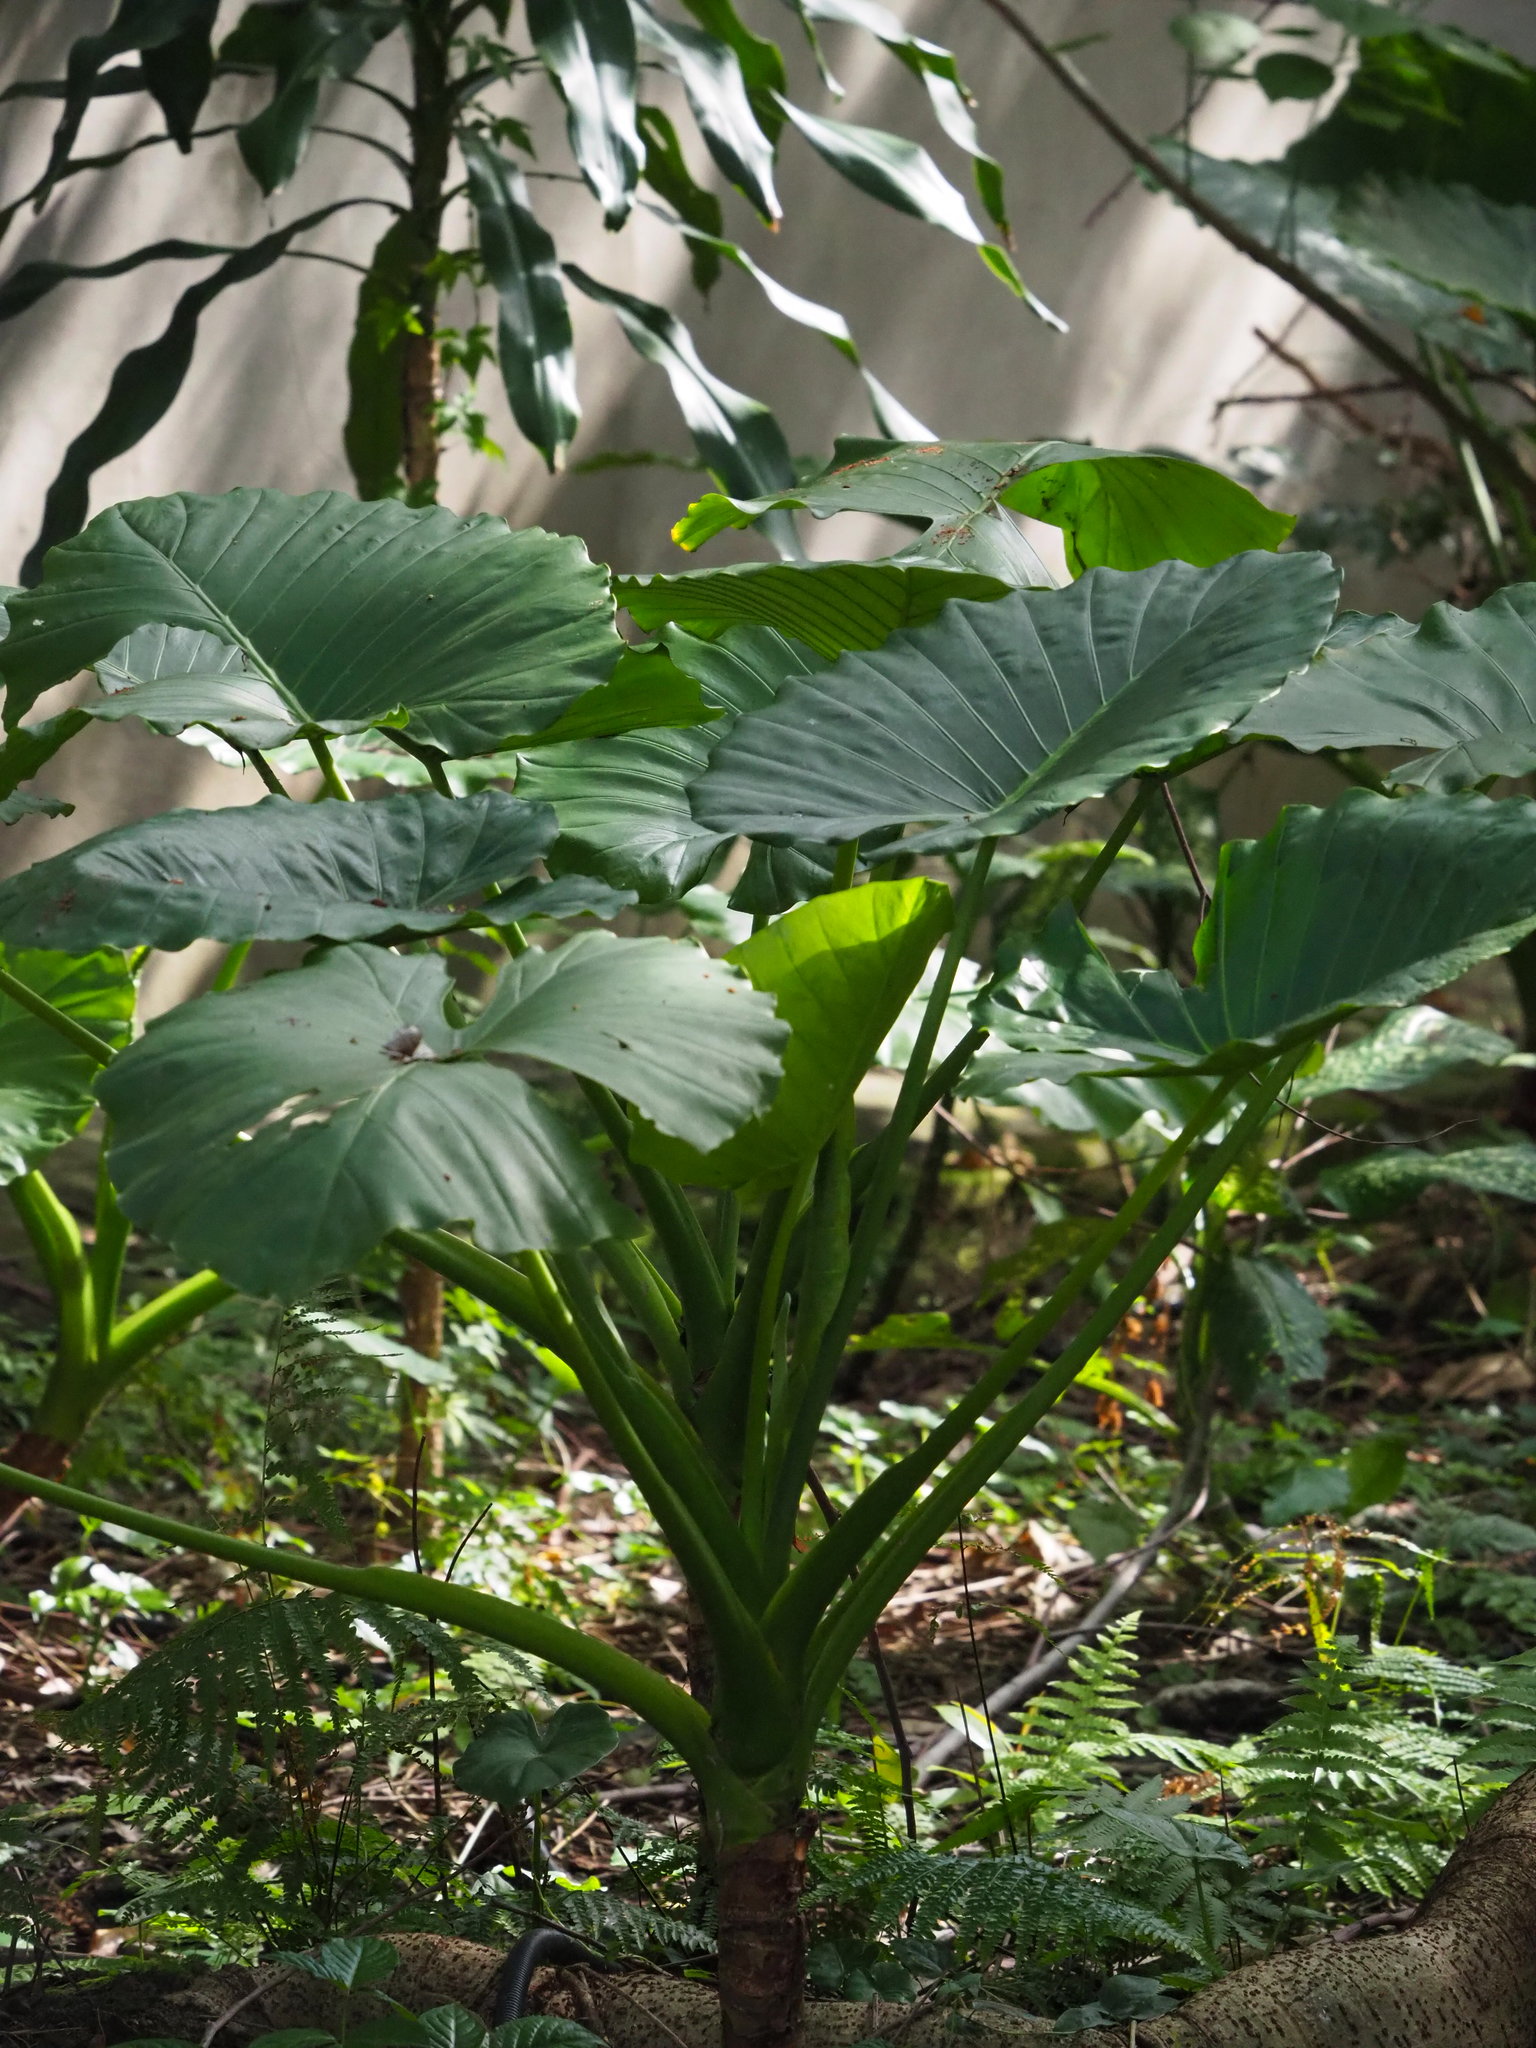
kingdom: Plantae
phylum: Tracheophyta
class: Liliopsida
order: Alismatales
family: Araceae
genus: Alocasia
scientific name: Alocasia odora
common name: Asian taro
